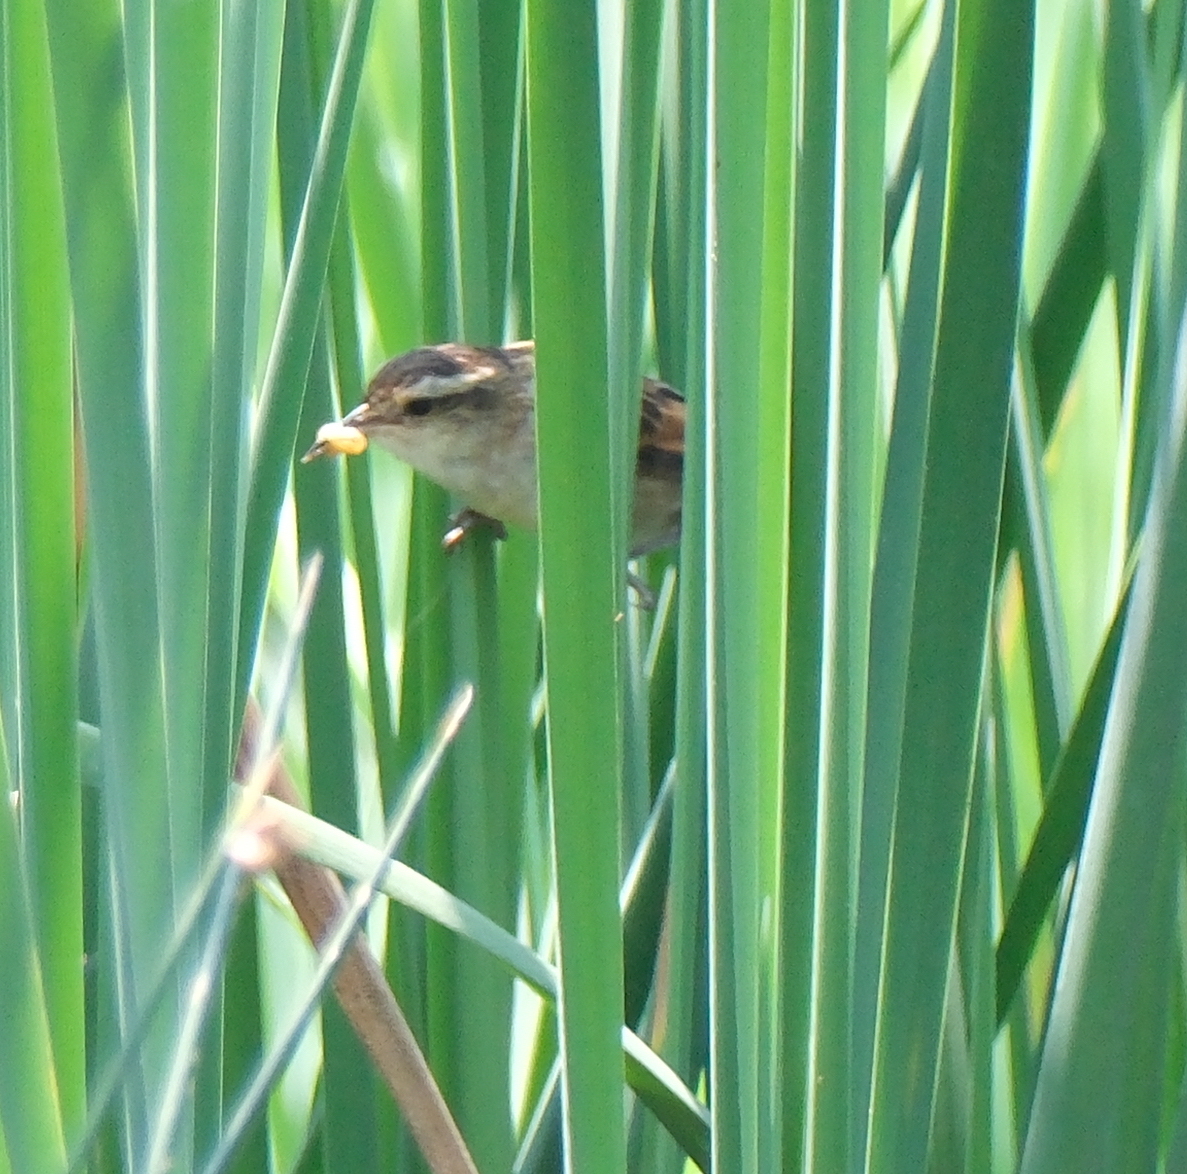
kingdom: Animalia
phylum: Chordata
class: Aves
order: Passeriformes
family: Furnariidae
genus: Phleocryptes
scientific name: Phleocryptes melanops
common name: Wren-like rushbird
